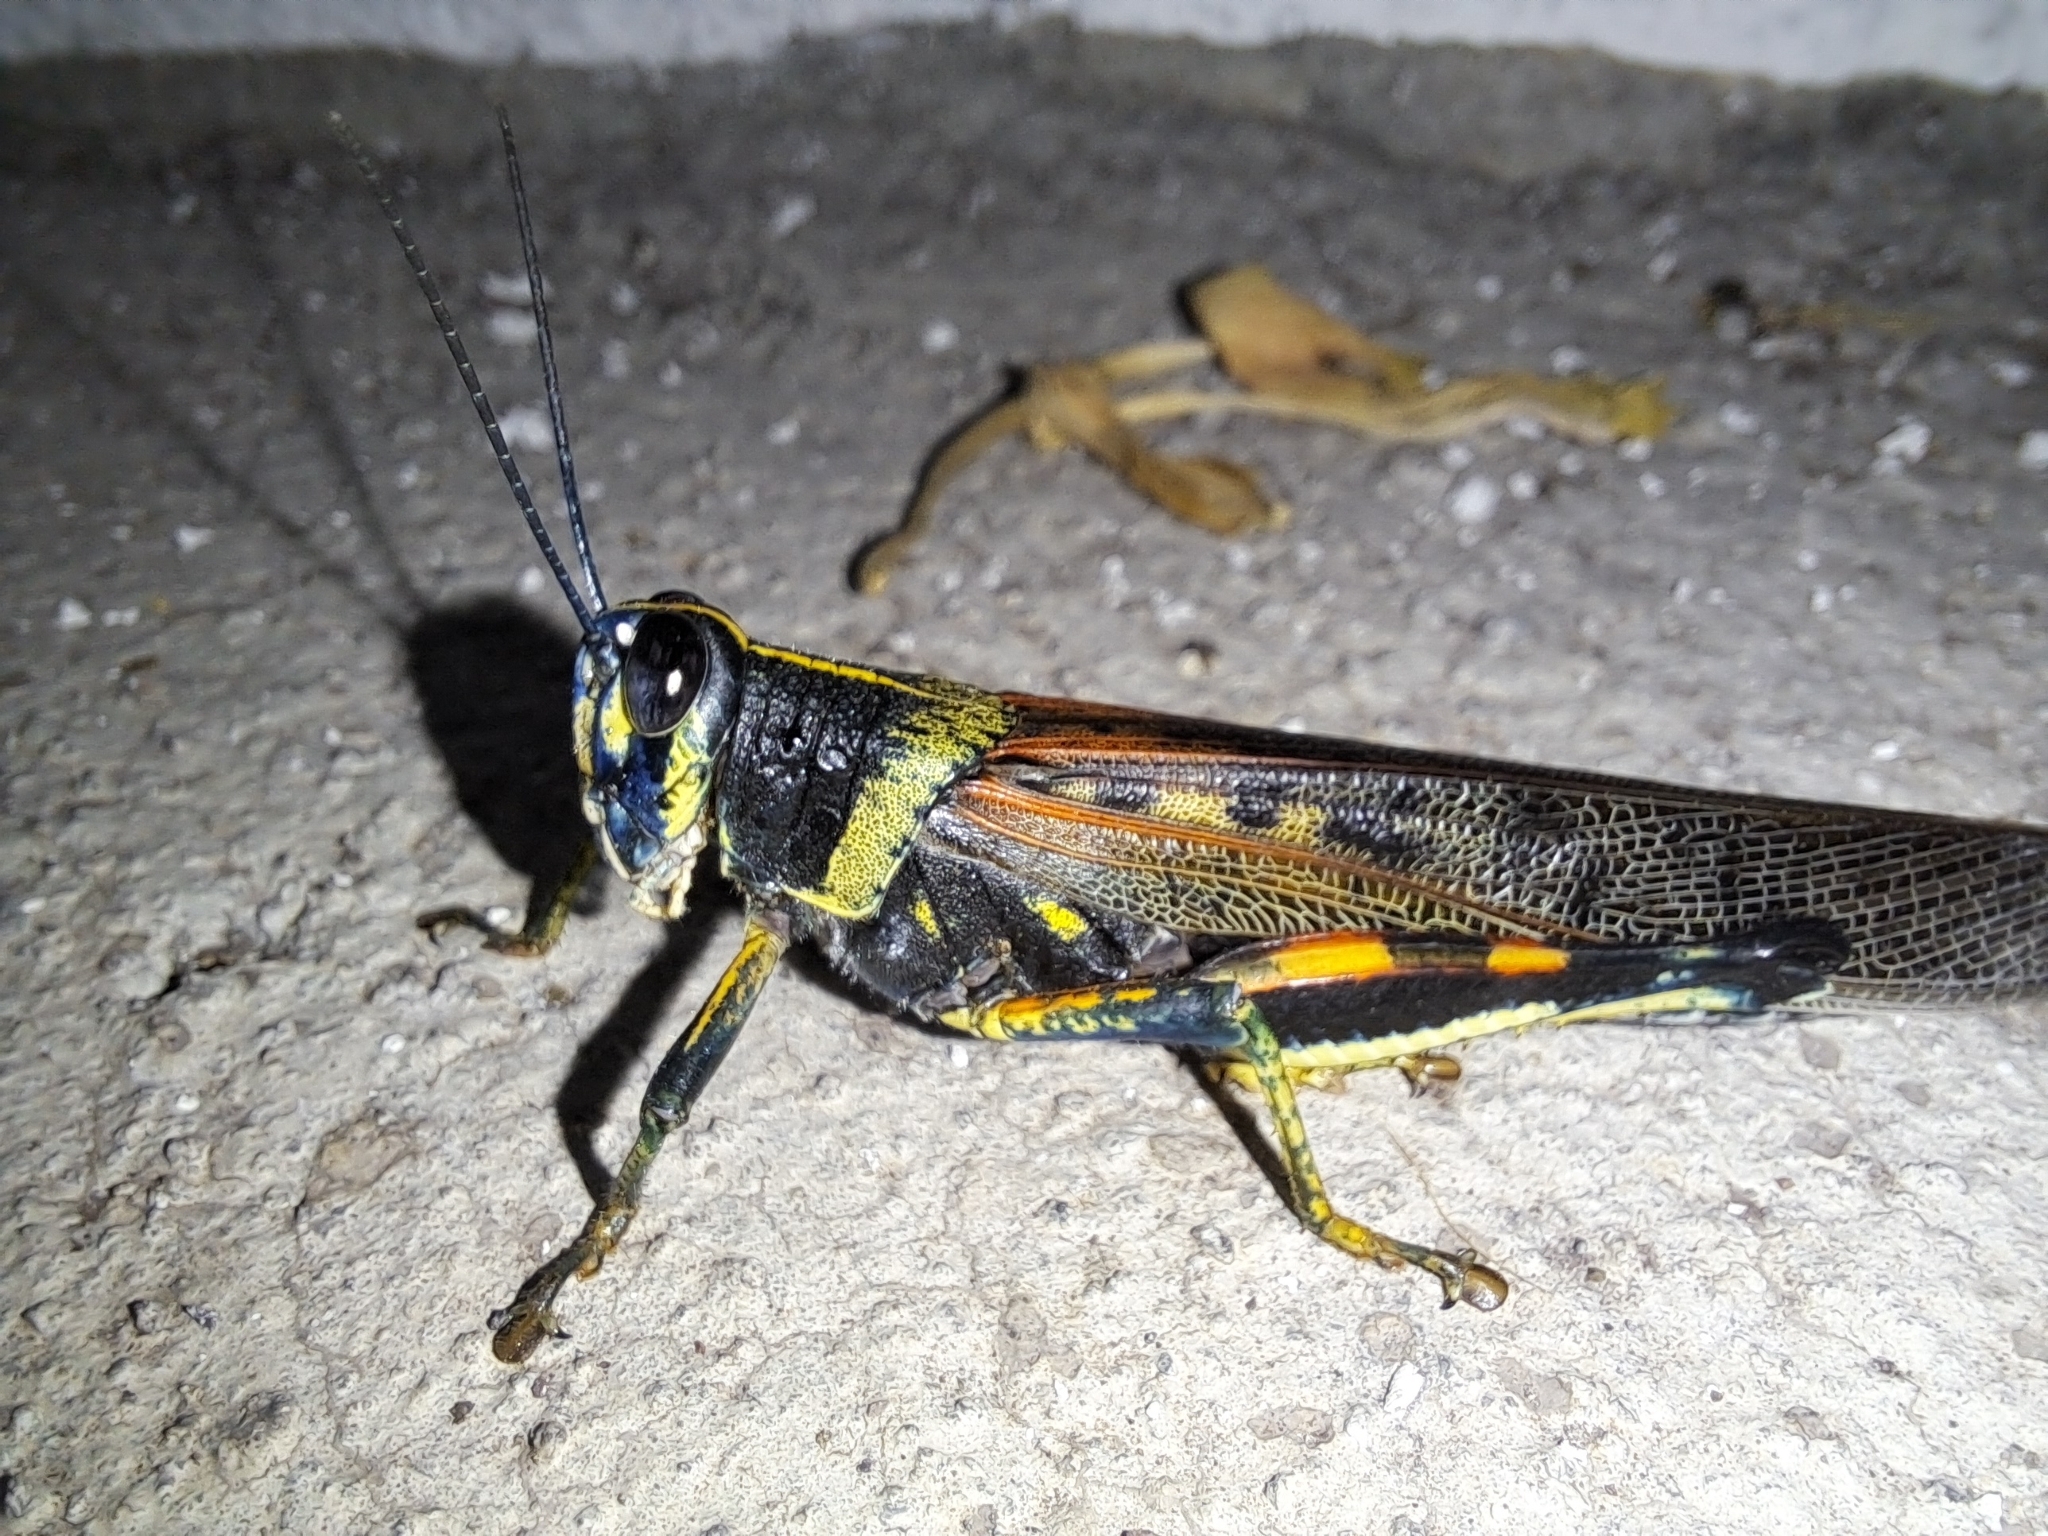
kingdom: Animalia
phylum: Arthropoda
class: Insecta
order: Orthoptera
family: Acrididae
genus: Schistocerca
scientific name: Schistocerca melanocera
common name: Large painted locust
